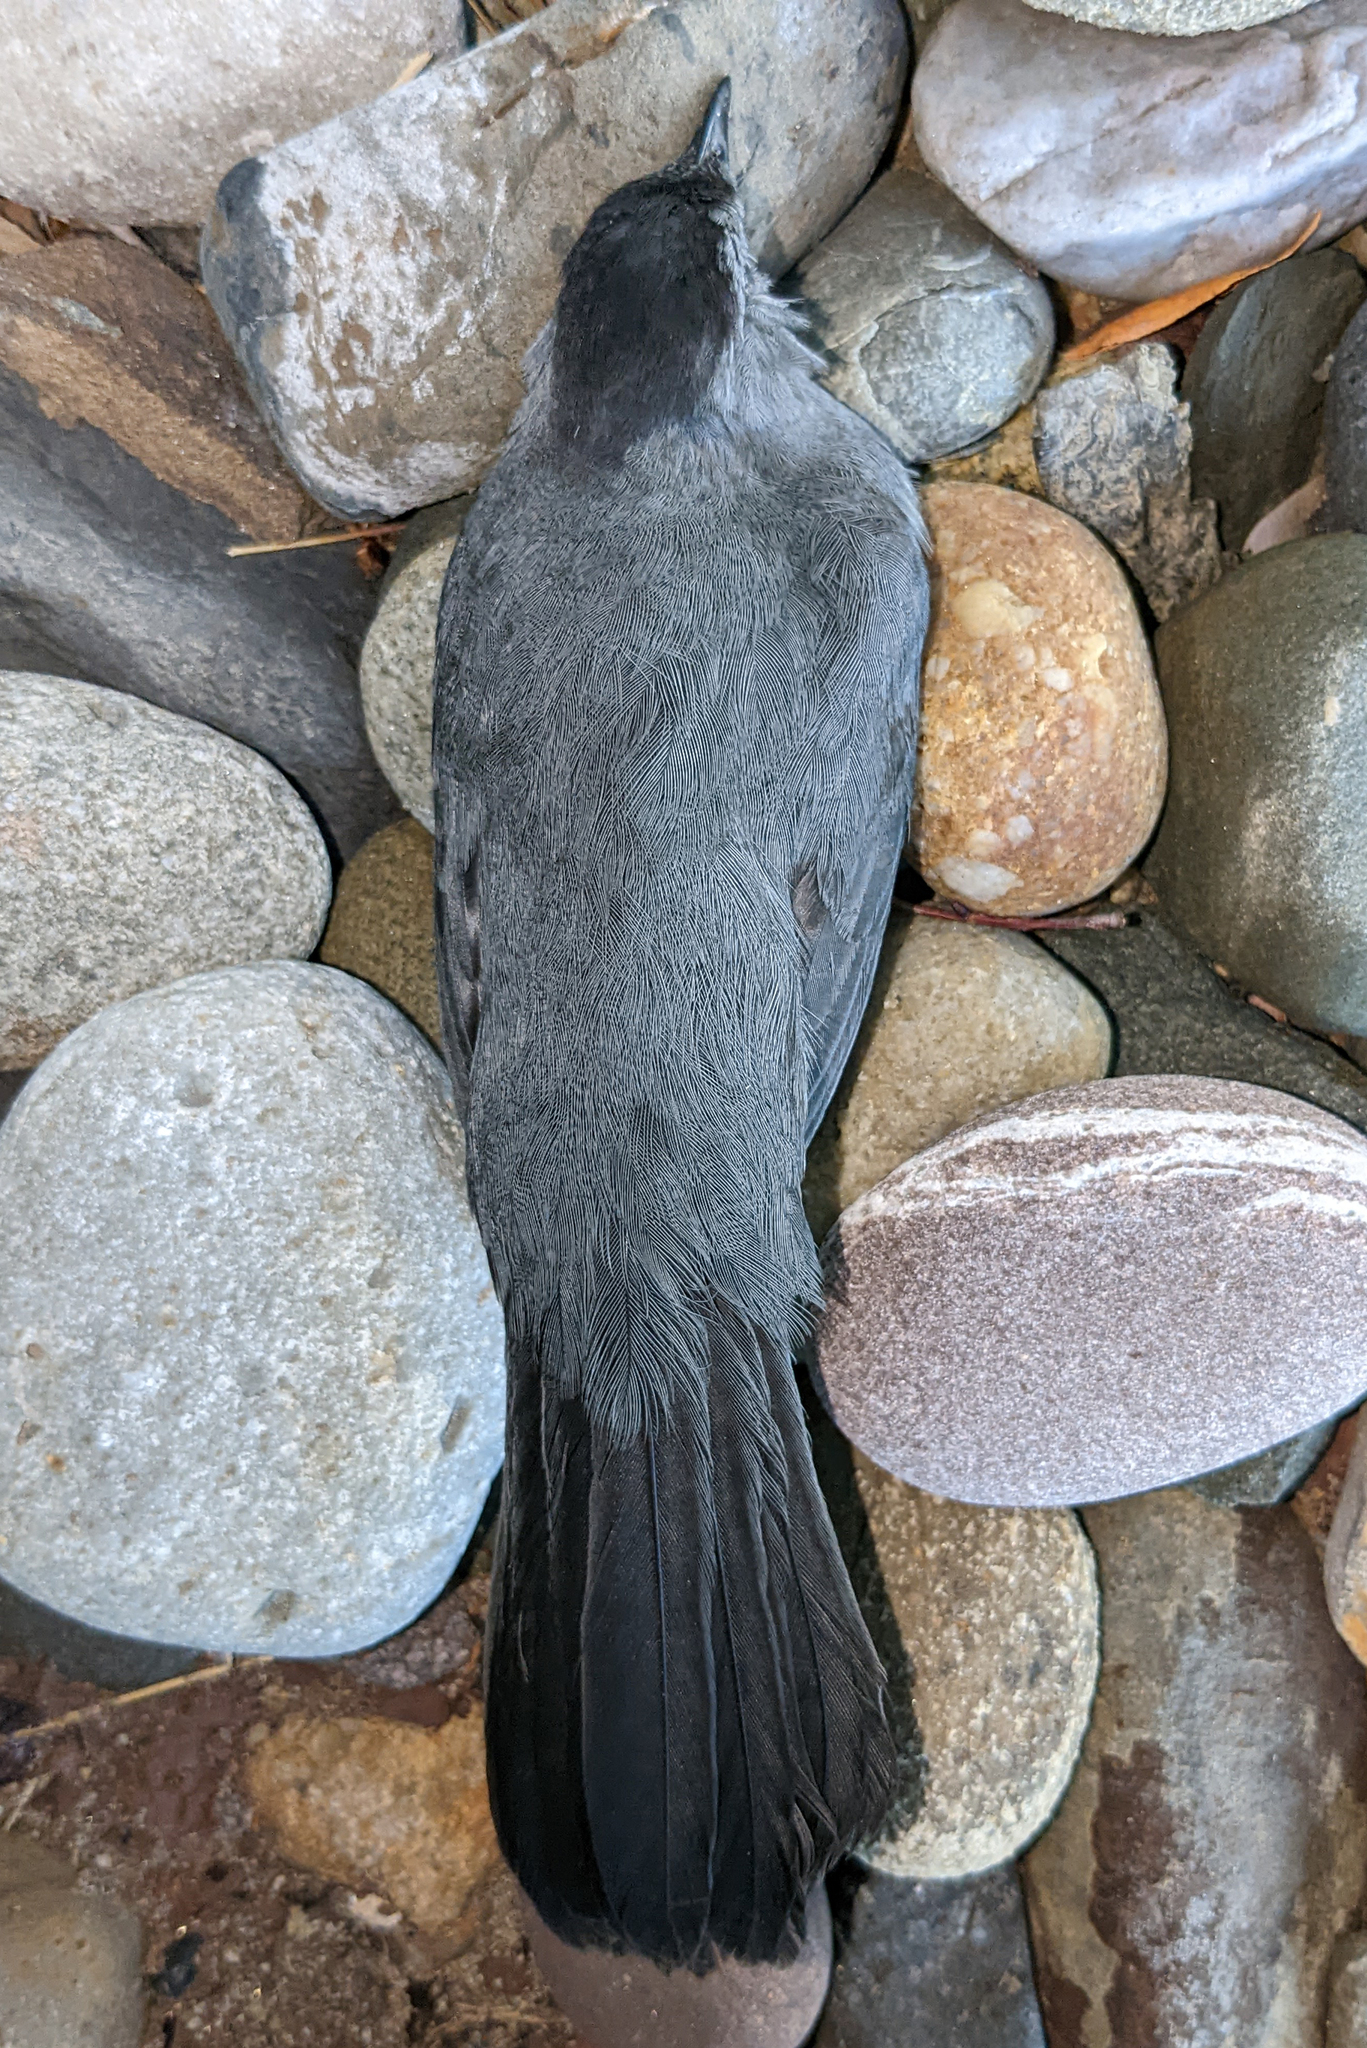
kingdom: Animalia
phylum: Chordata
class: Aves
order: Passeriformes
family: Mimidae
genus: Dumetella
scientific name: Dumetella carolinensis
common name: Gray catbird
